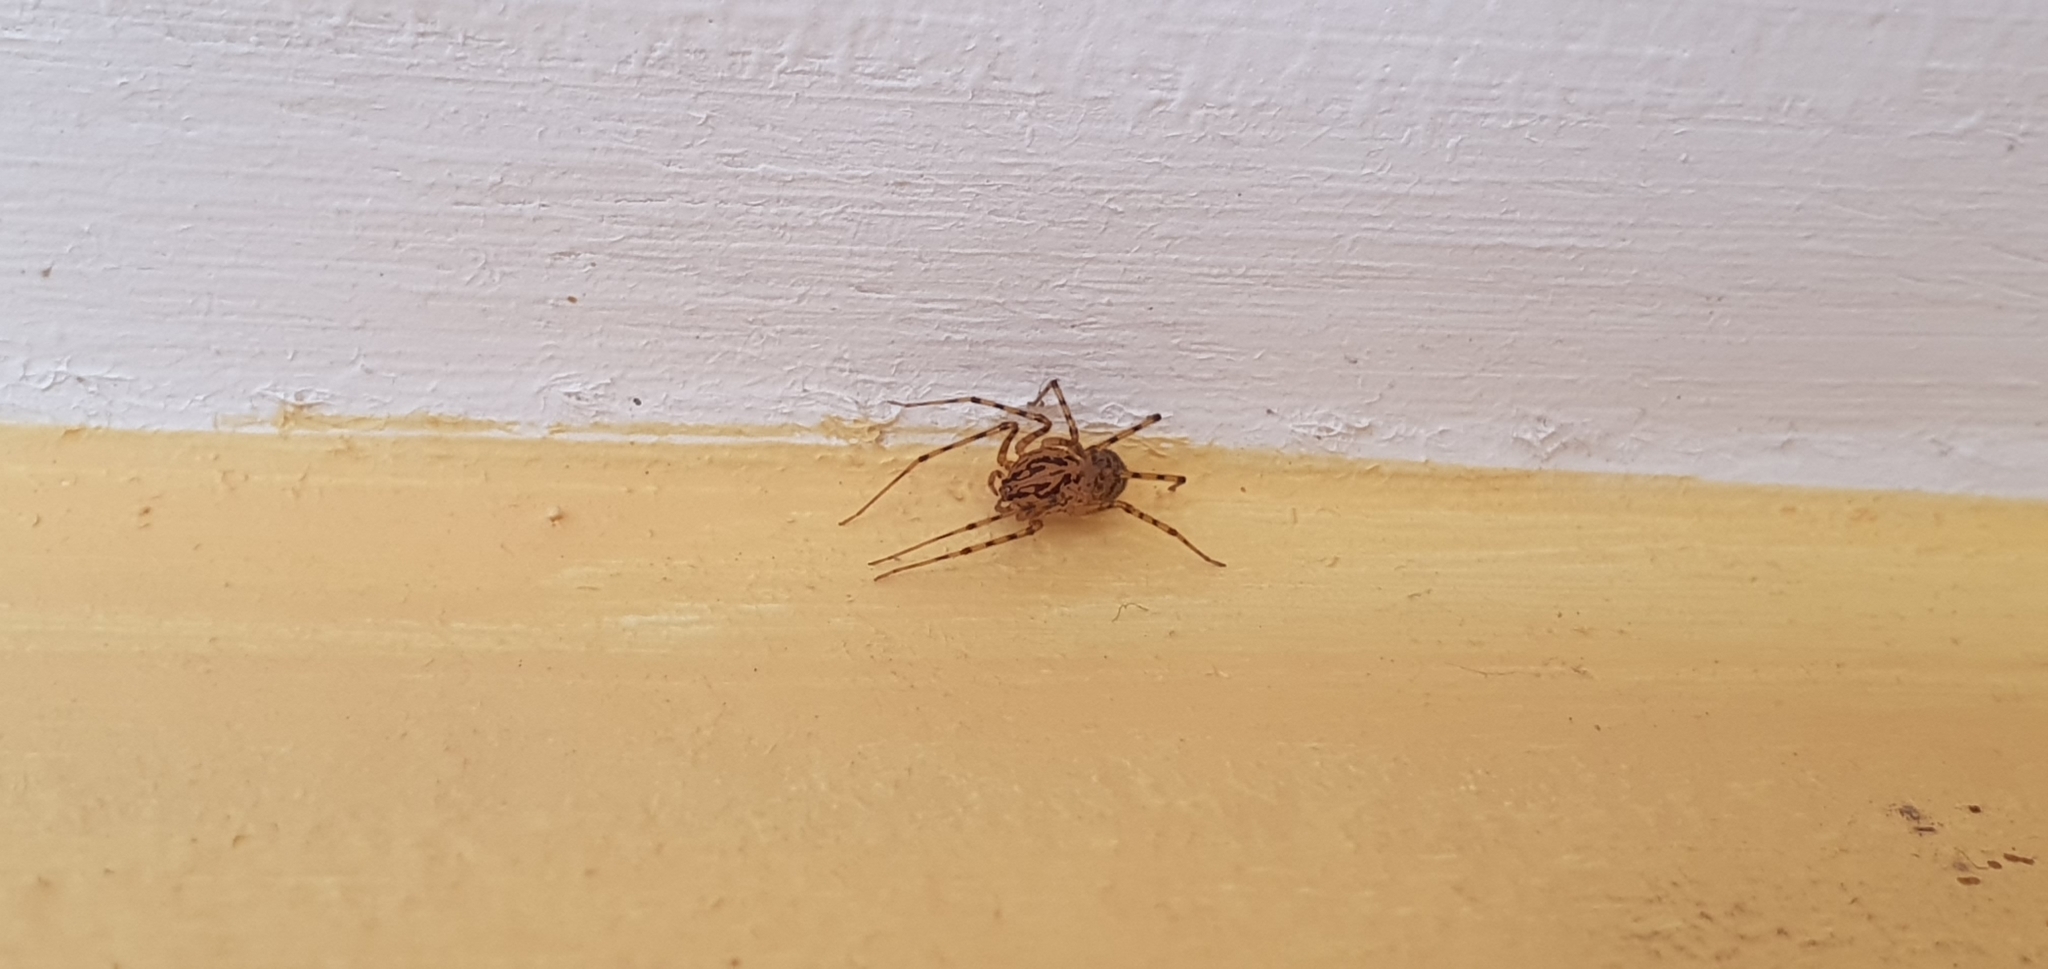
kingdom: Animalia
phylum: Arthropoda
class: Arachnida
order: Araneae
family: Scytodidae
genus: Scytodes
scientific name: Scytodes thoracica
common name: Spitting spider
